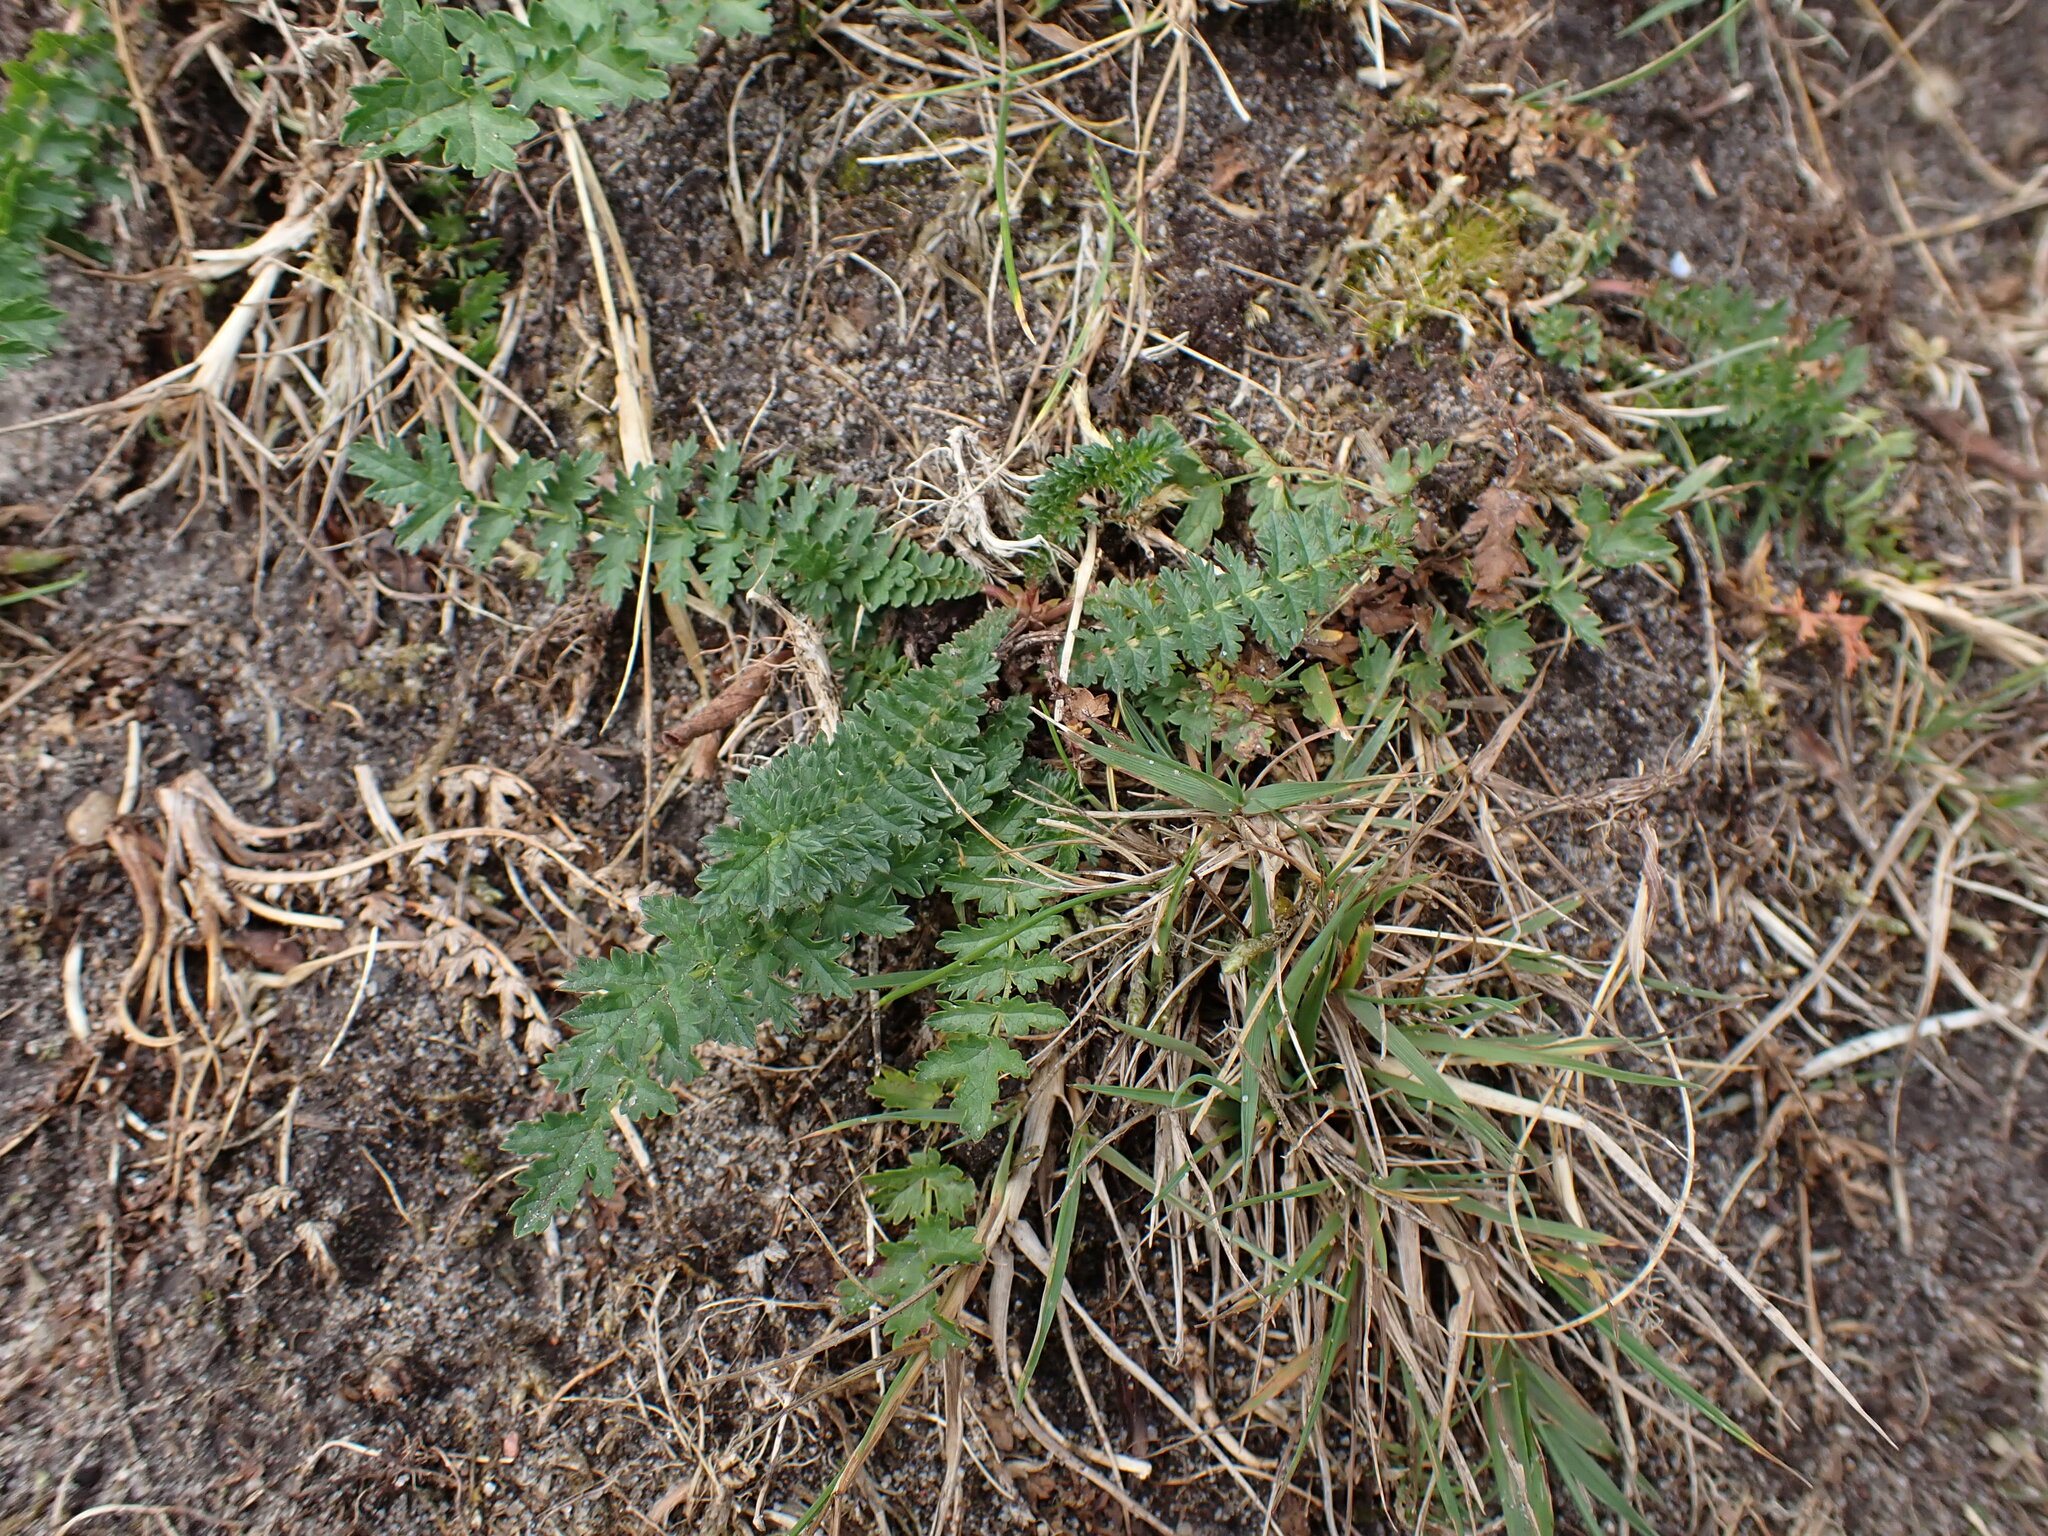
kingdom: Plantae
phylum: Tracheophyta
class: Magnoliopsida
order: Rosales
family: Rosaceae
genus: Filipendula
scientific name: Filipendula vulgaris
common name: Dropwort
